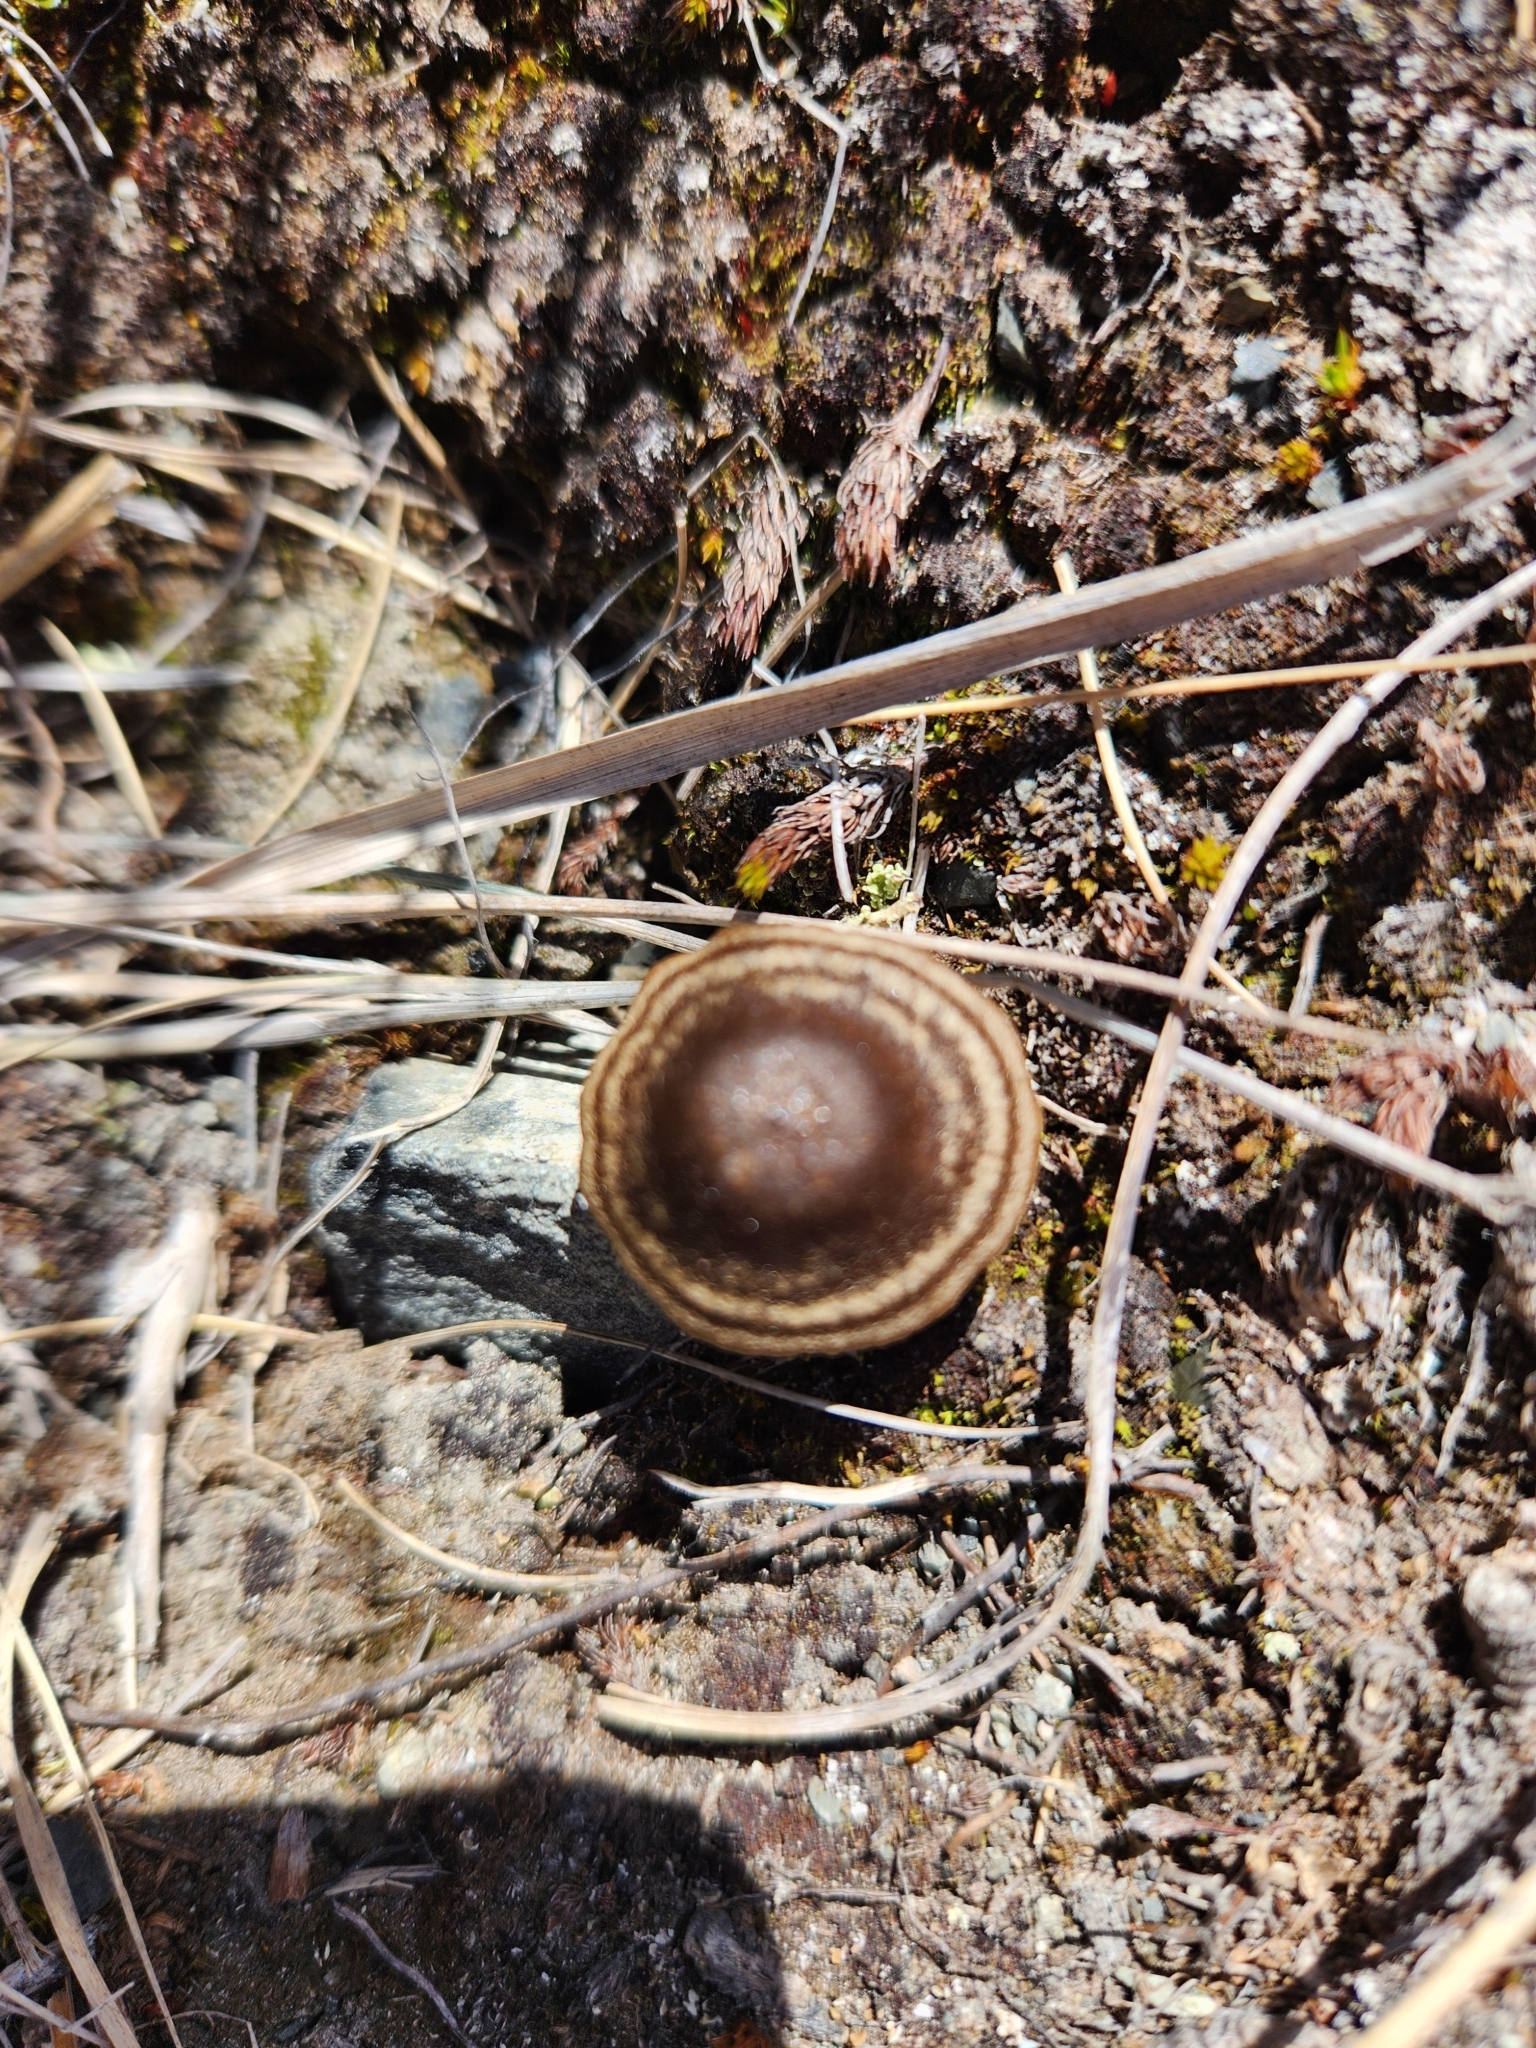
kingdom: Fungi
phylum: Basidiomycota
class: Agaricomycetes
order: Agaricales
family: Entolomataceae
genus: Entoloma
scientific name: Entoloma perzonatum
